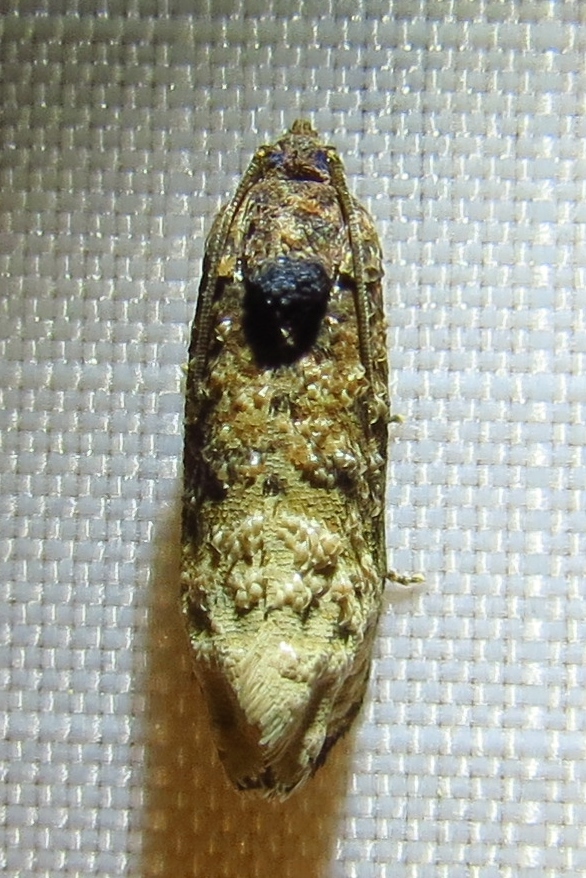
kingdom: Animalia
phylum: Arthropoda
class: Insecta
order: Lepidoptera
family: Tortricidae
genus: Ecdytolopha
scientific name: Ecdytolopha mana
